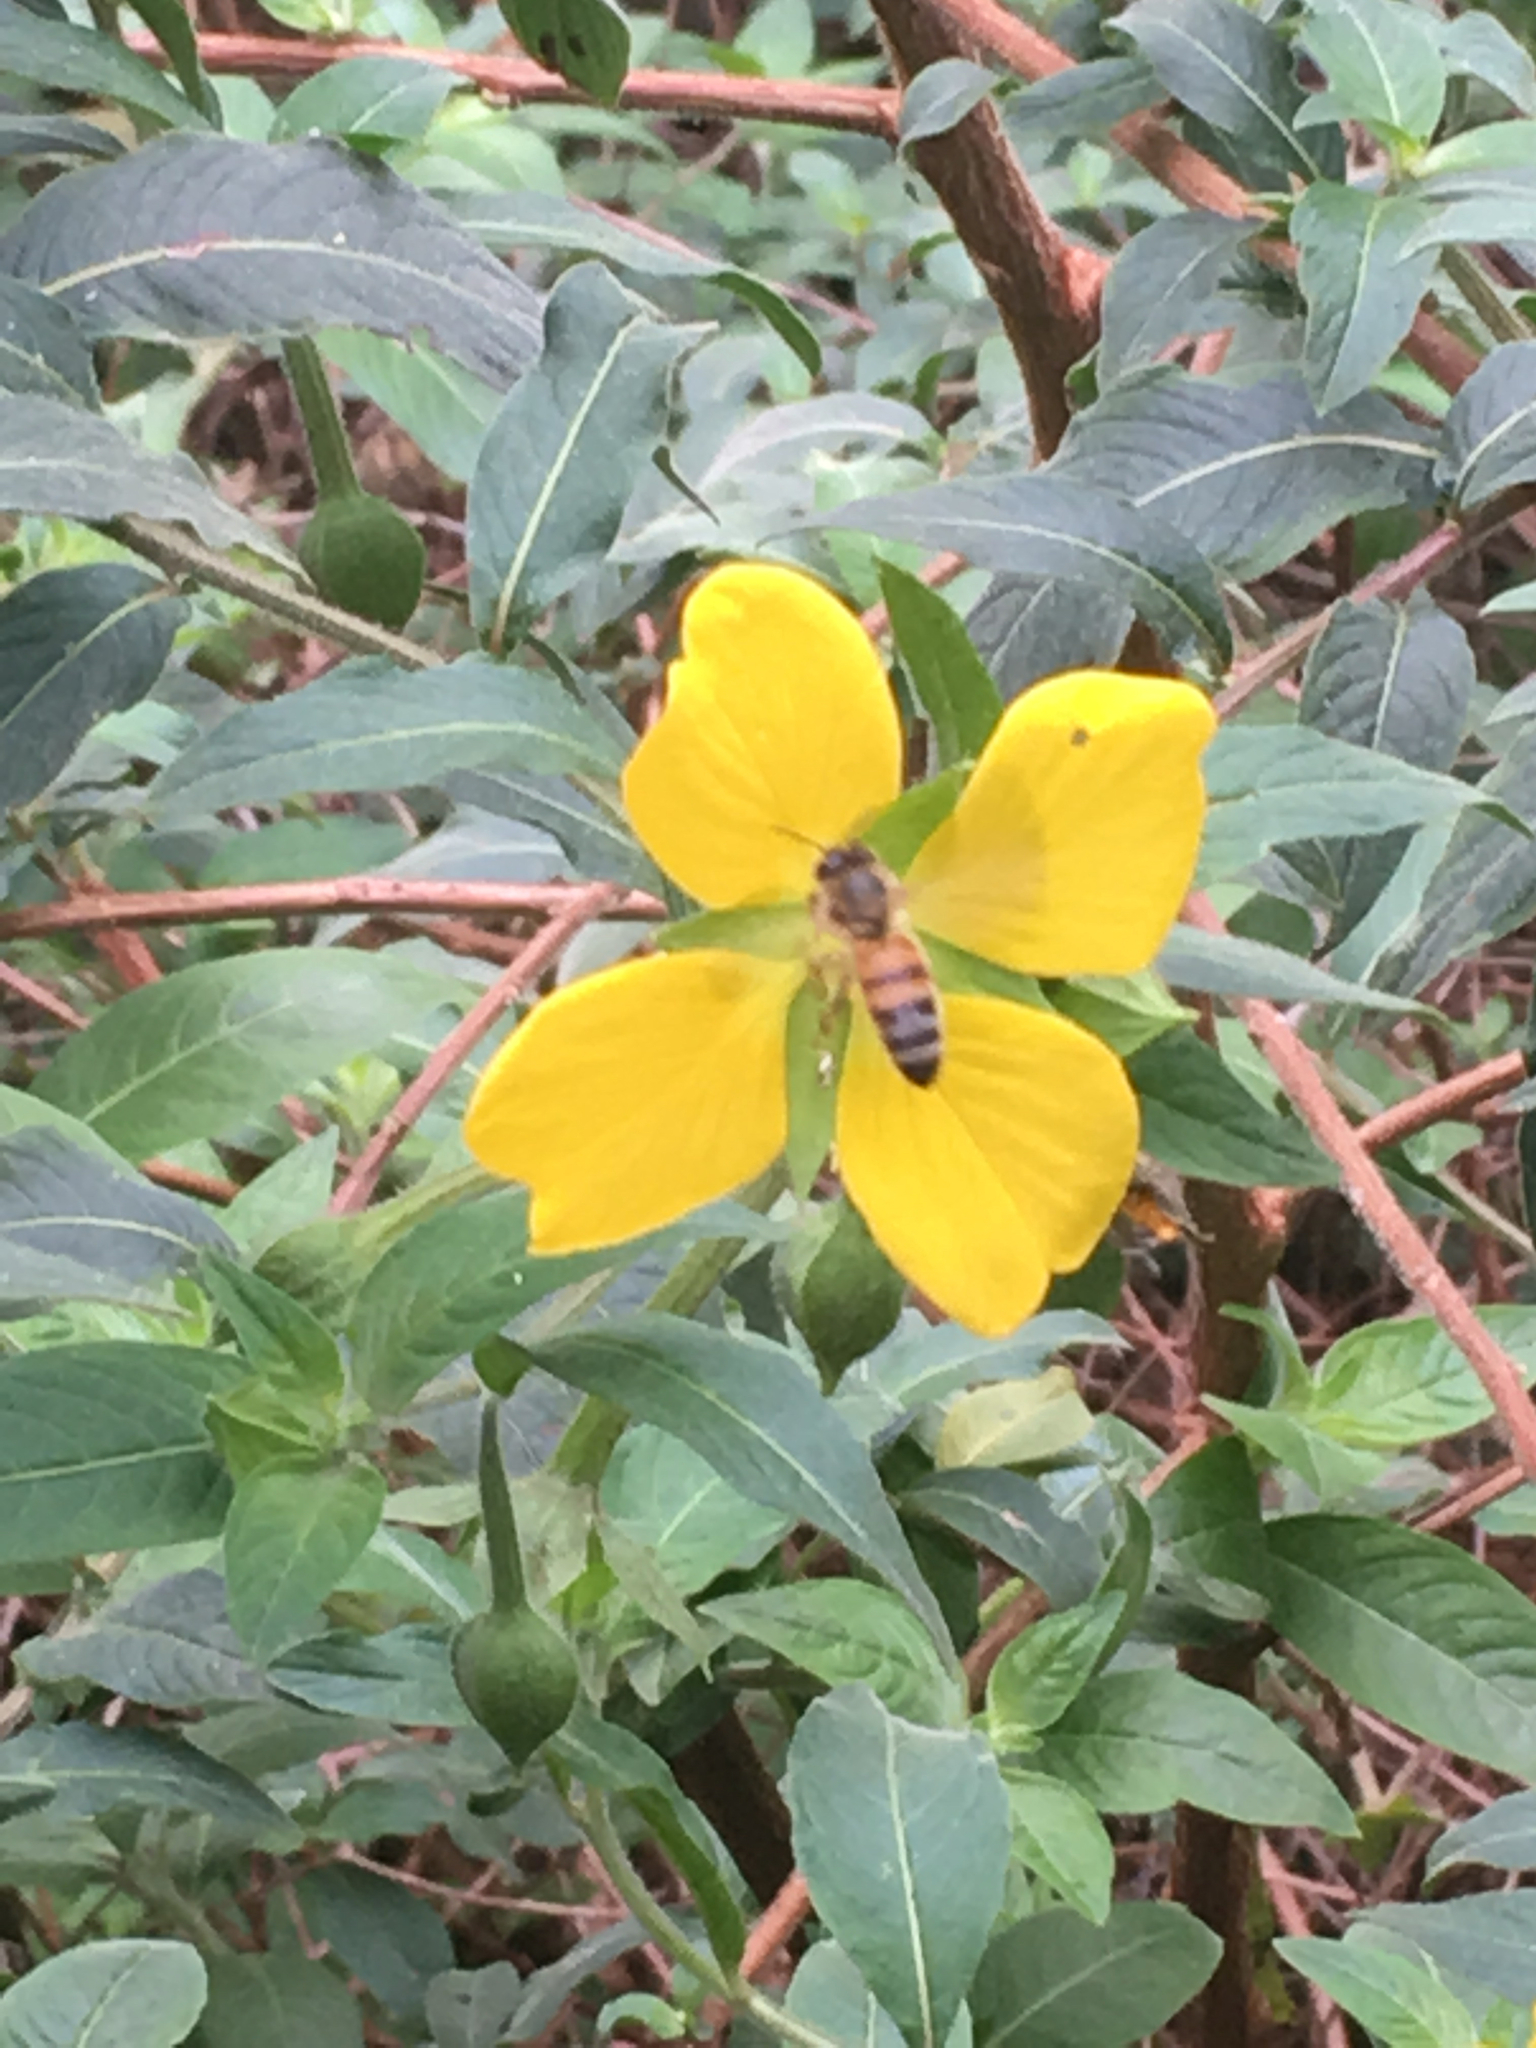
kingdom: Animalia
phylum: Arthropoda
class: Insecta
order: Hymenoptera
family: Apidae
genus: Apis
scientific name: Apis mellifera
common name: Honey bee
